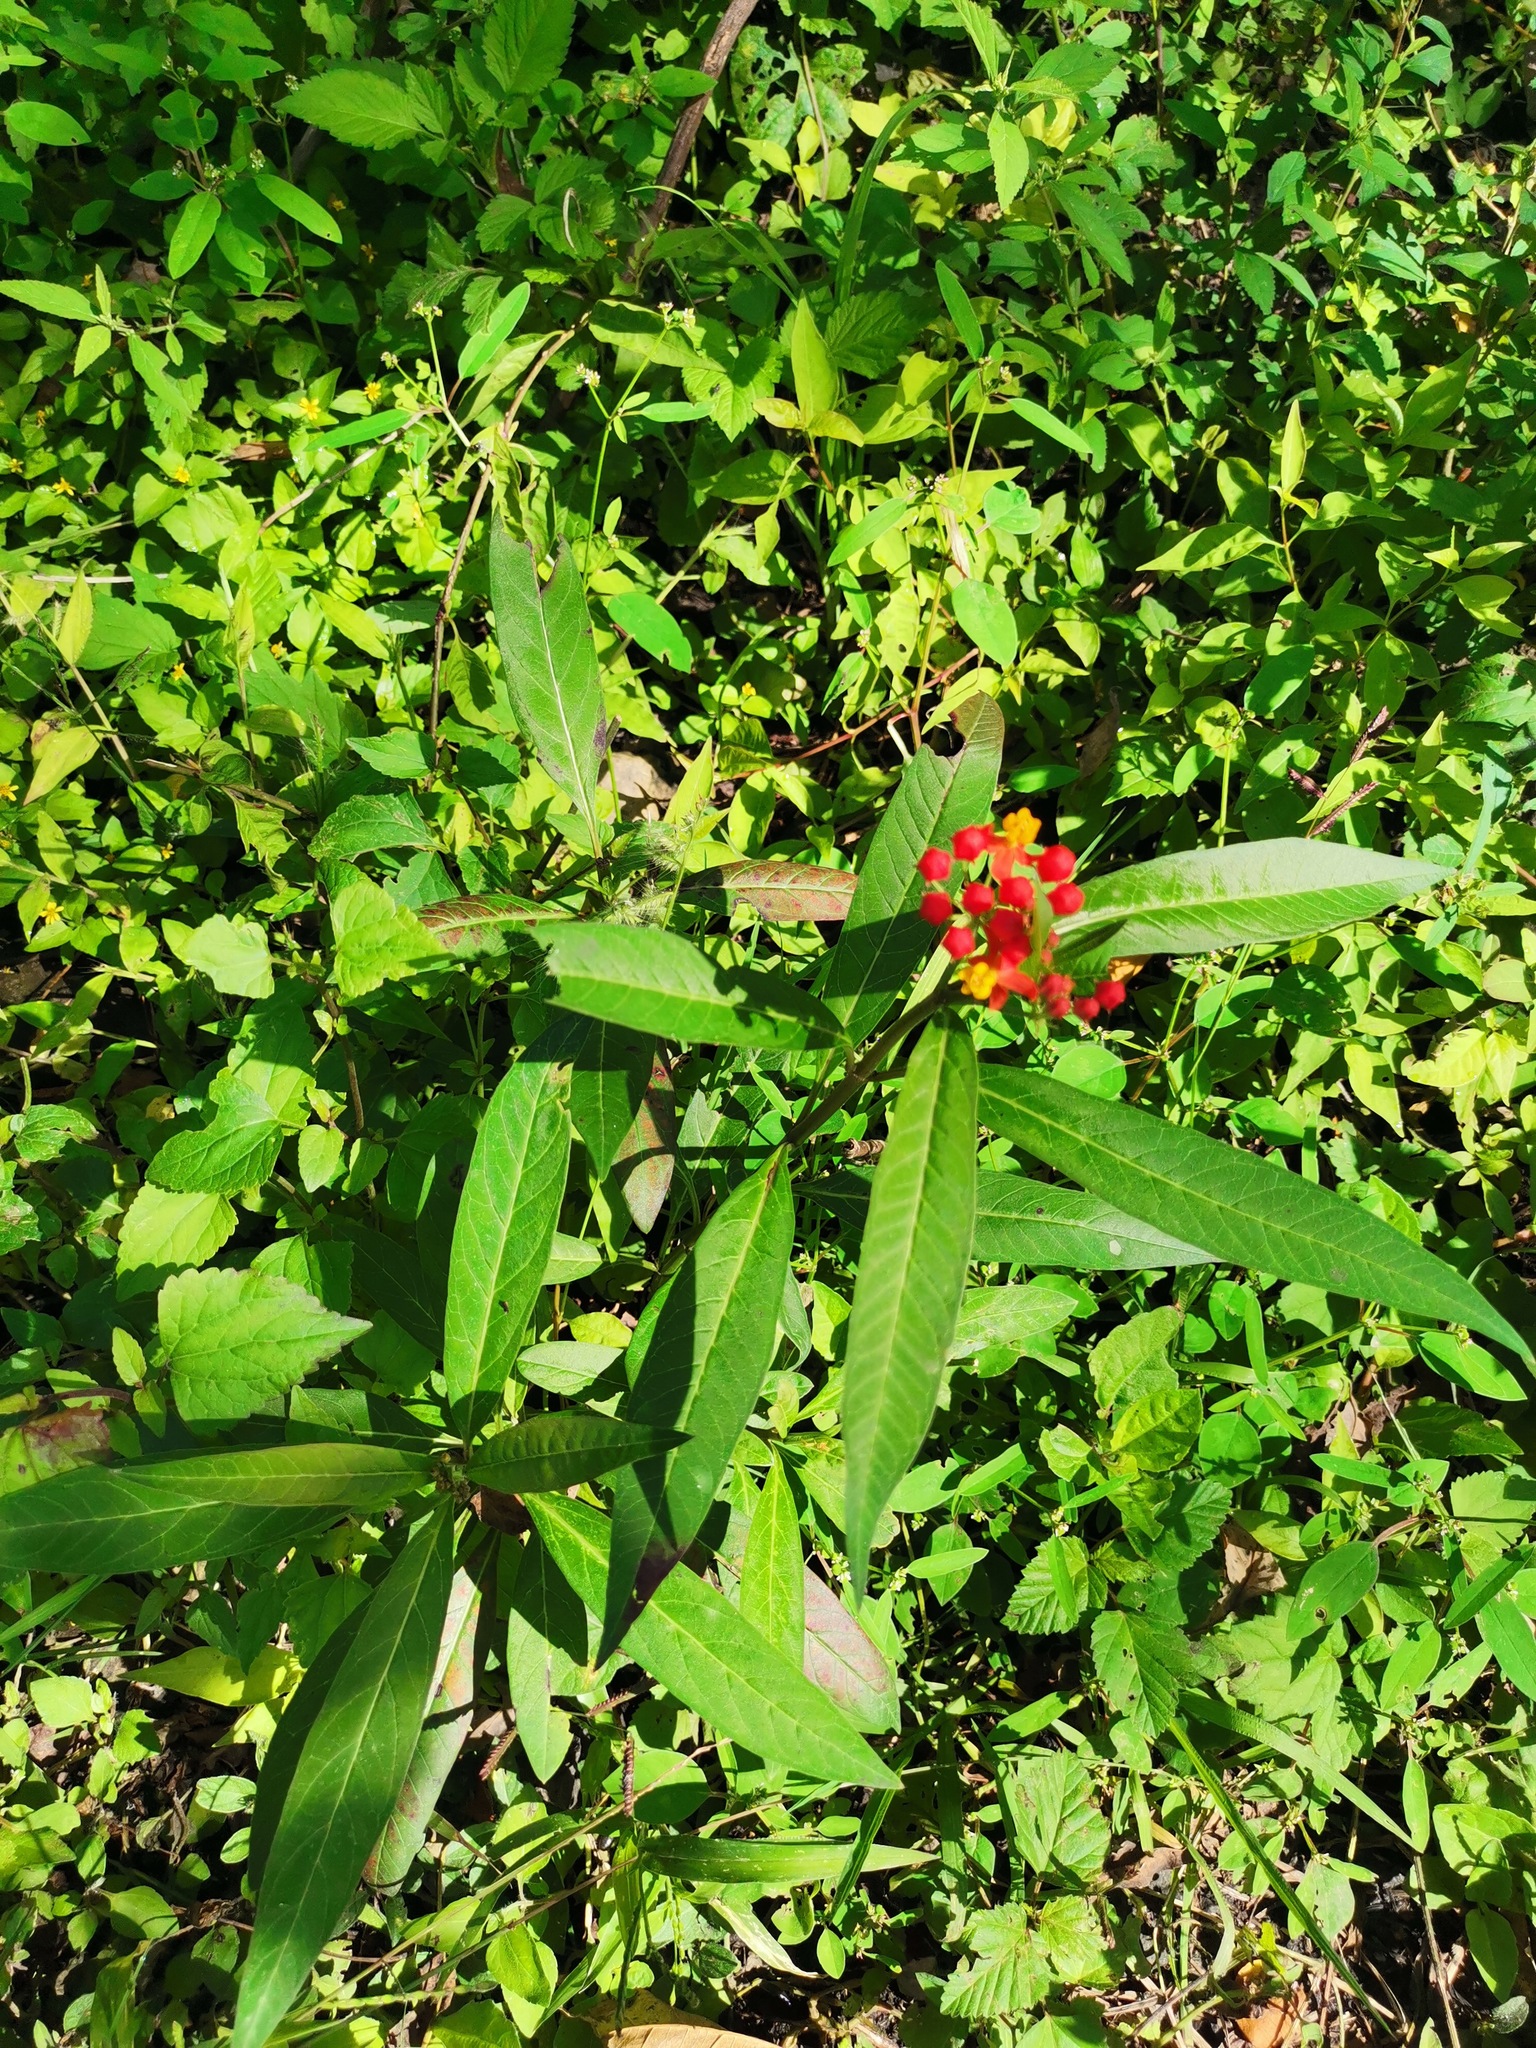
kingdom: Plantae
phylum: Tracheophyta
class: Magnoliopsida
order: Gentianales
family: Apocynaceae
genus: Asclepias
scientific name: Asclepias curassavica
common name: Bloodflower
